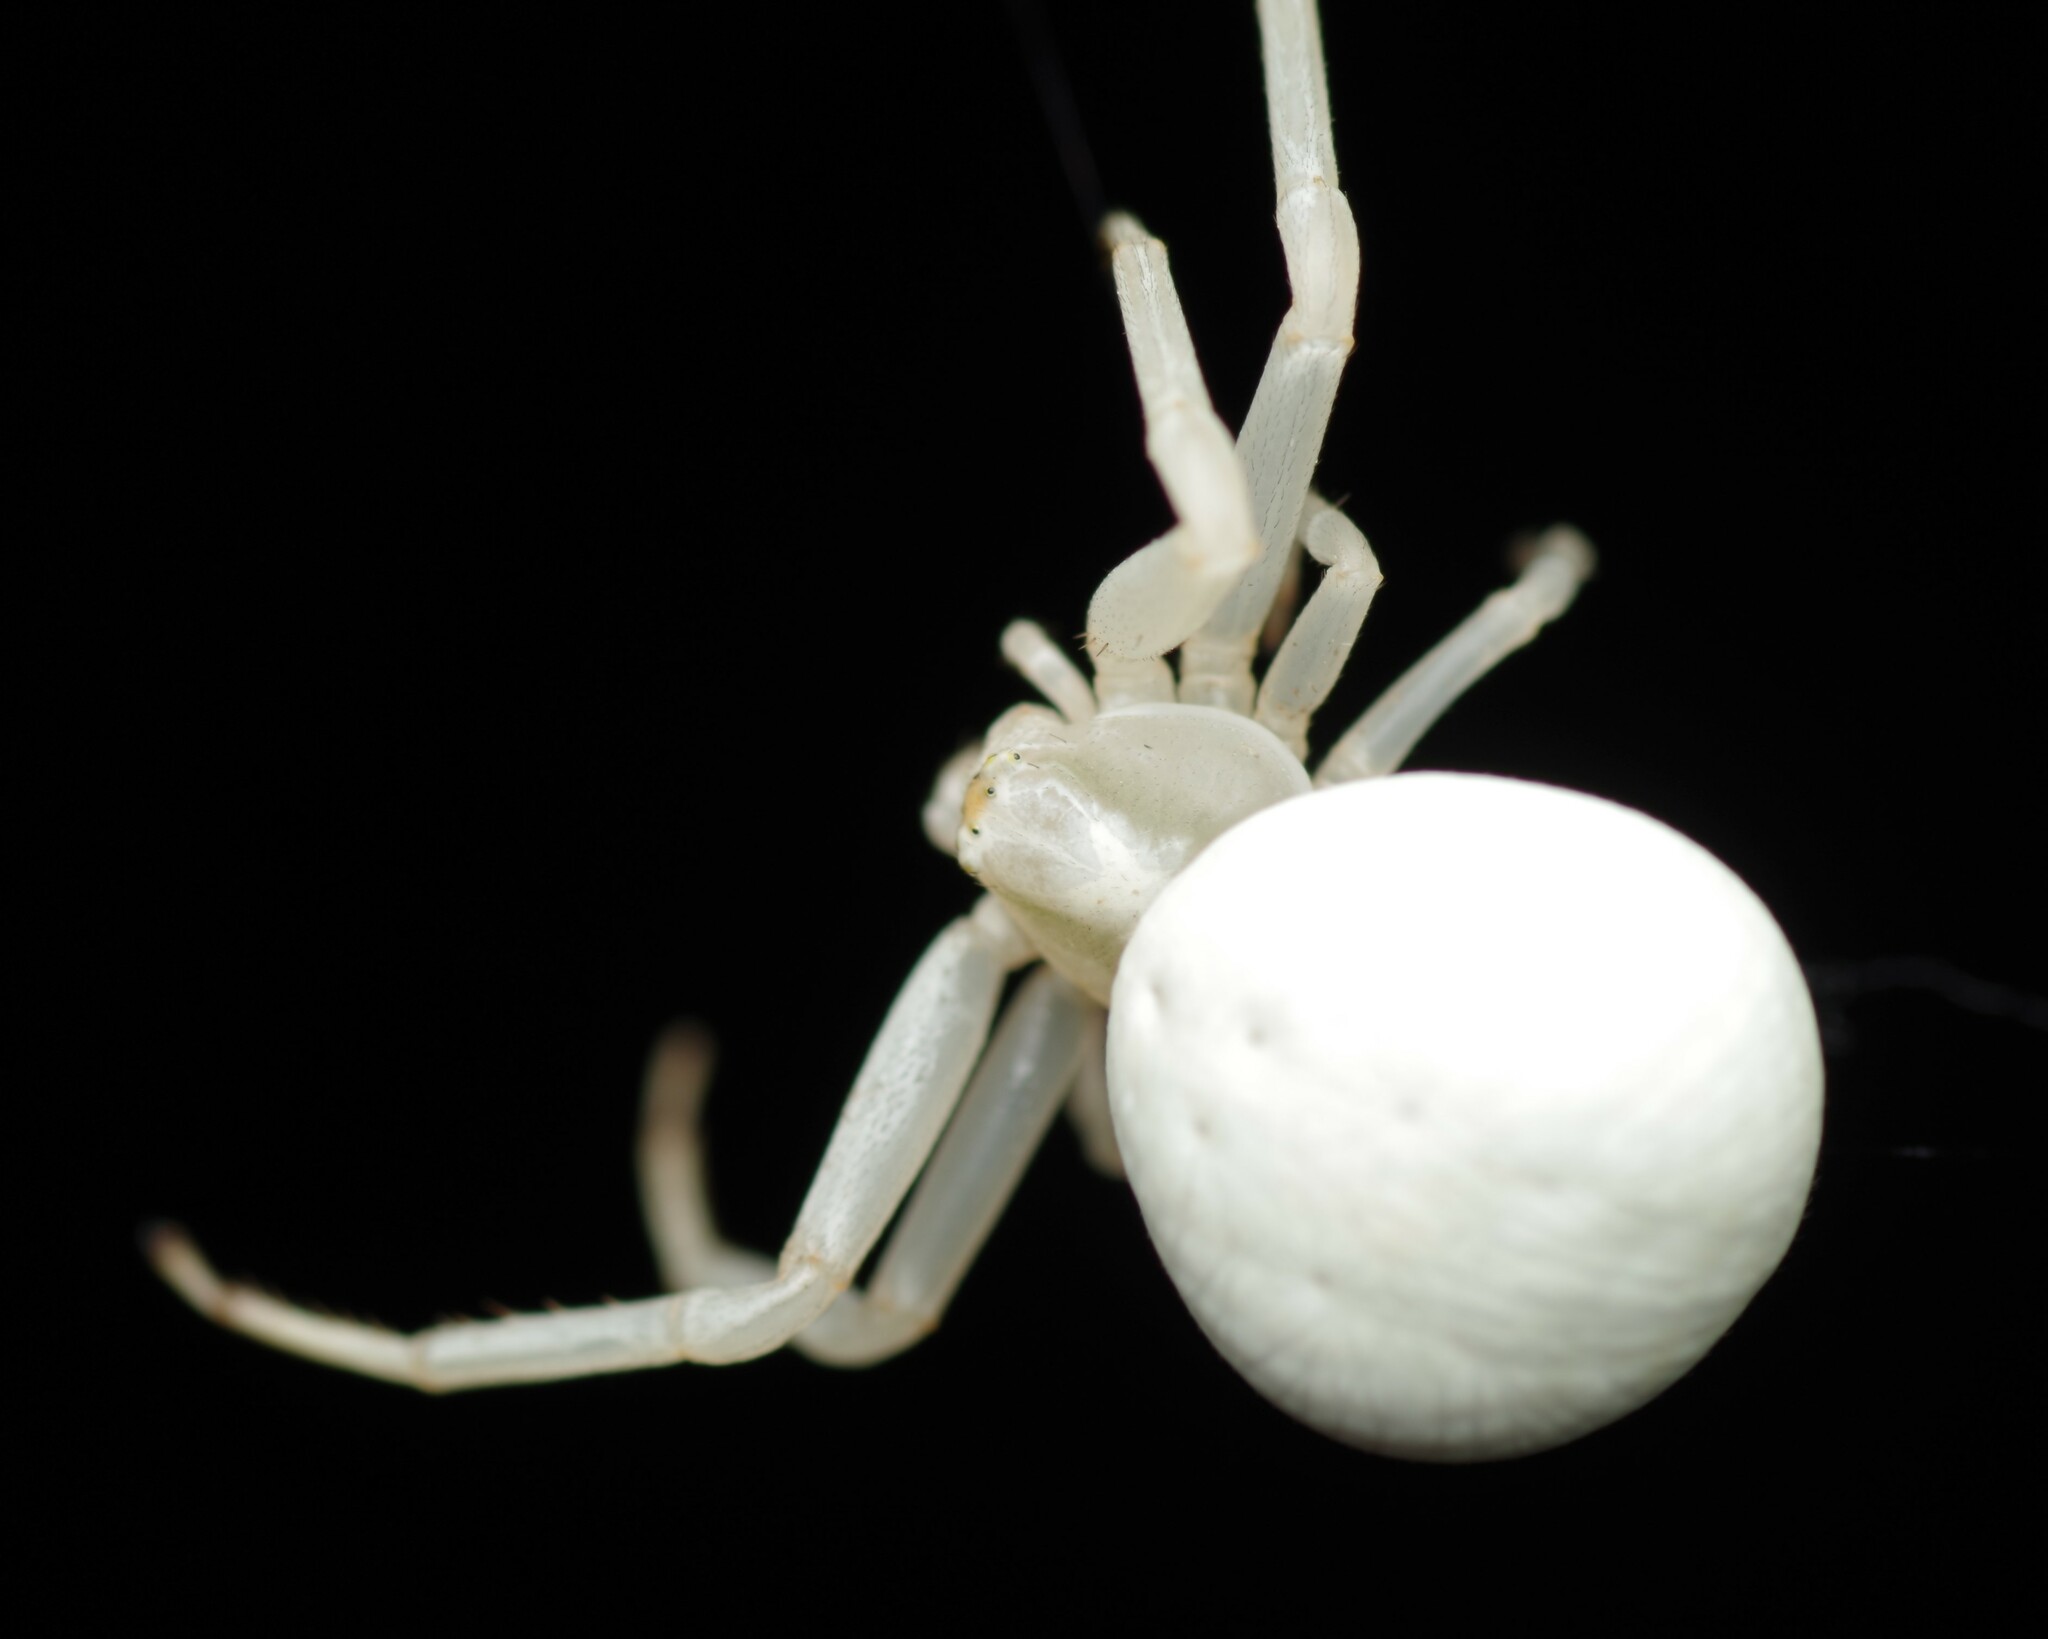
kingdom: Animalia
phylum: Arthropoda
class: Arachnida
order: Araneae
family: Thomisidae
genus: Misumena
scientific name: Misumena vatia
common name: Goldenrod crab spider
